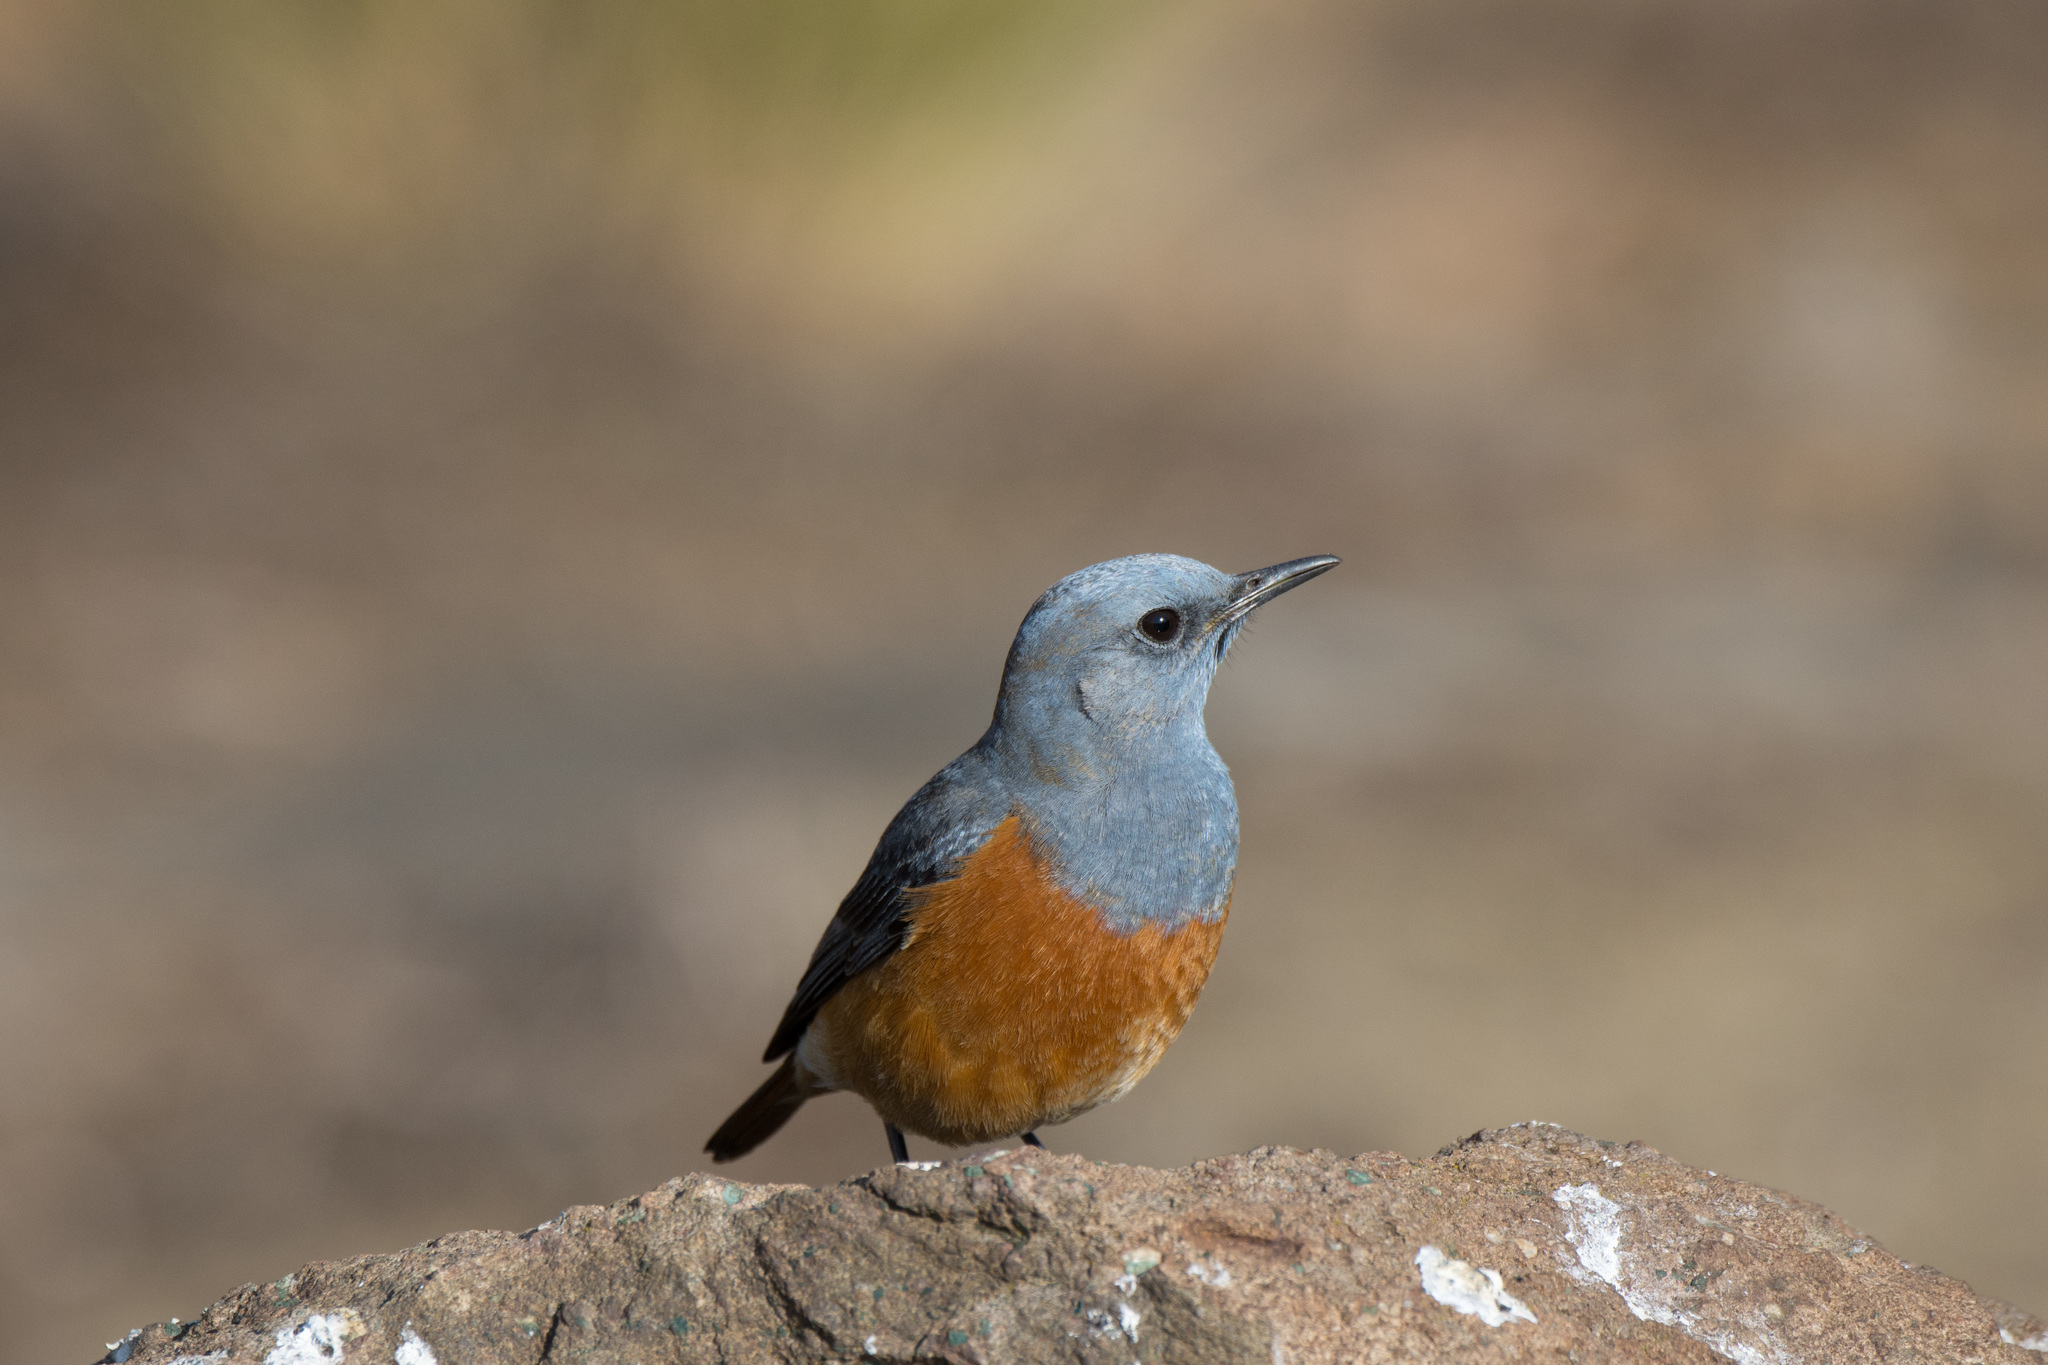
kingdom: Animalia
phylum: Chordata
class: Aves
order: Passeriformes
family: Muscicapidae
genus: Monticola
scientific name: Monticola explorator
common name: Sentinel rock thrush
